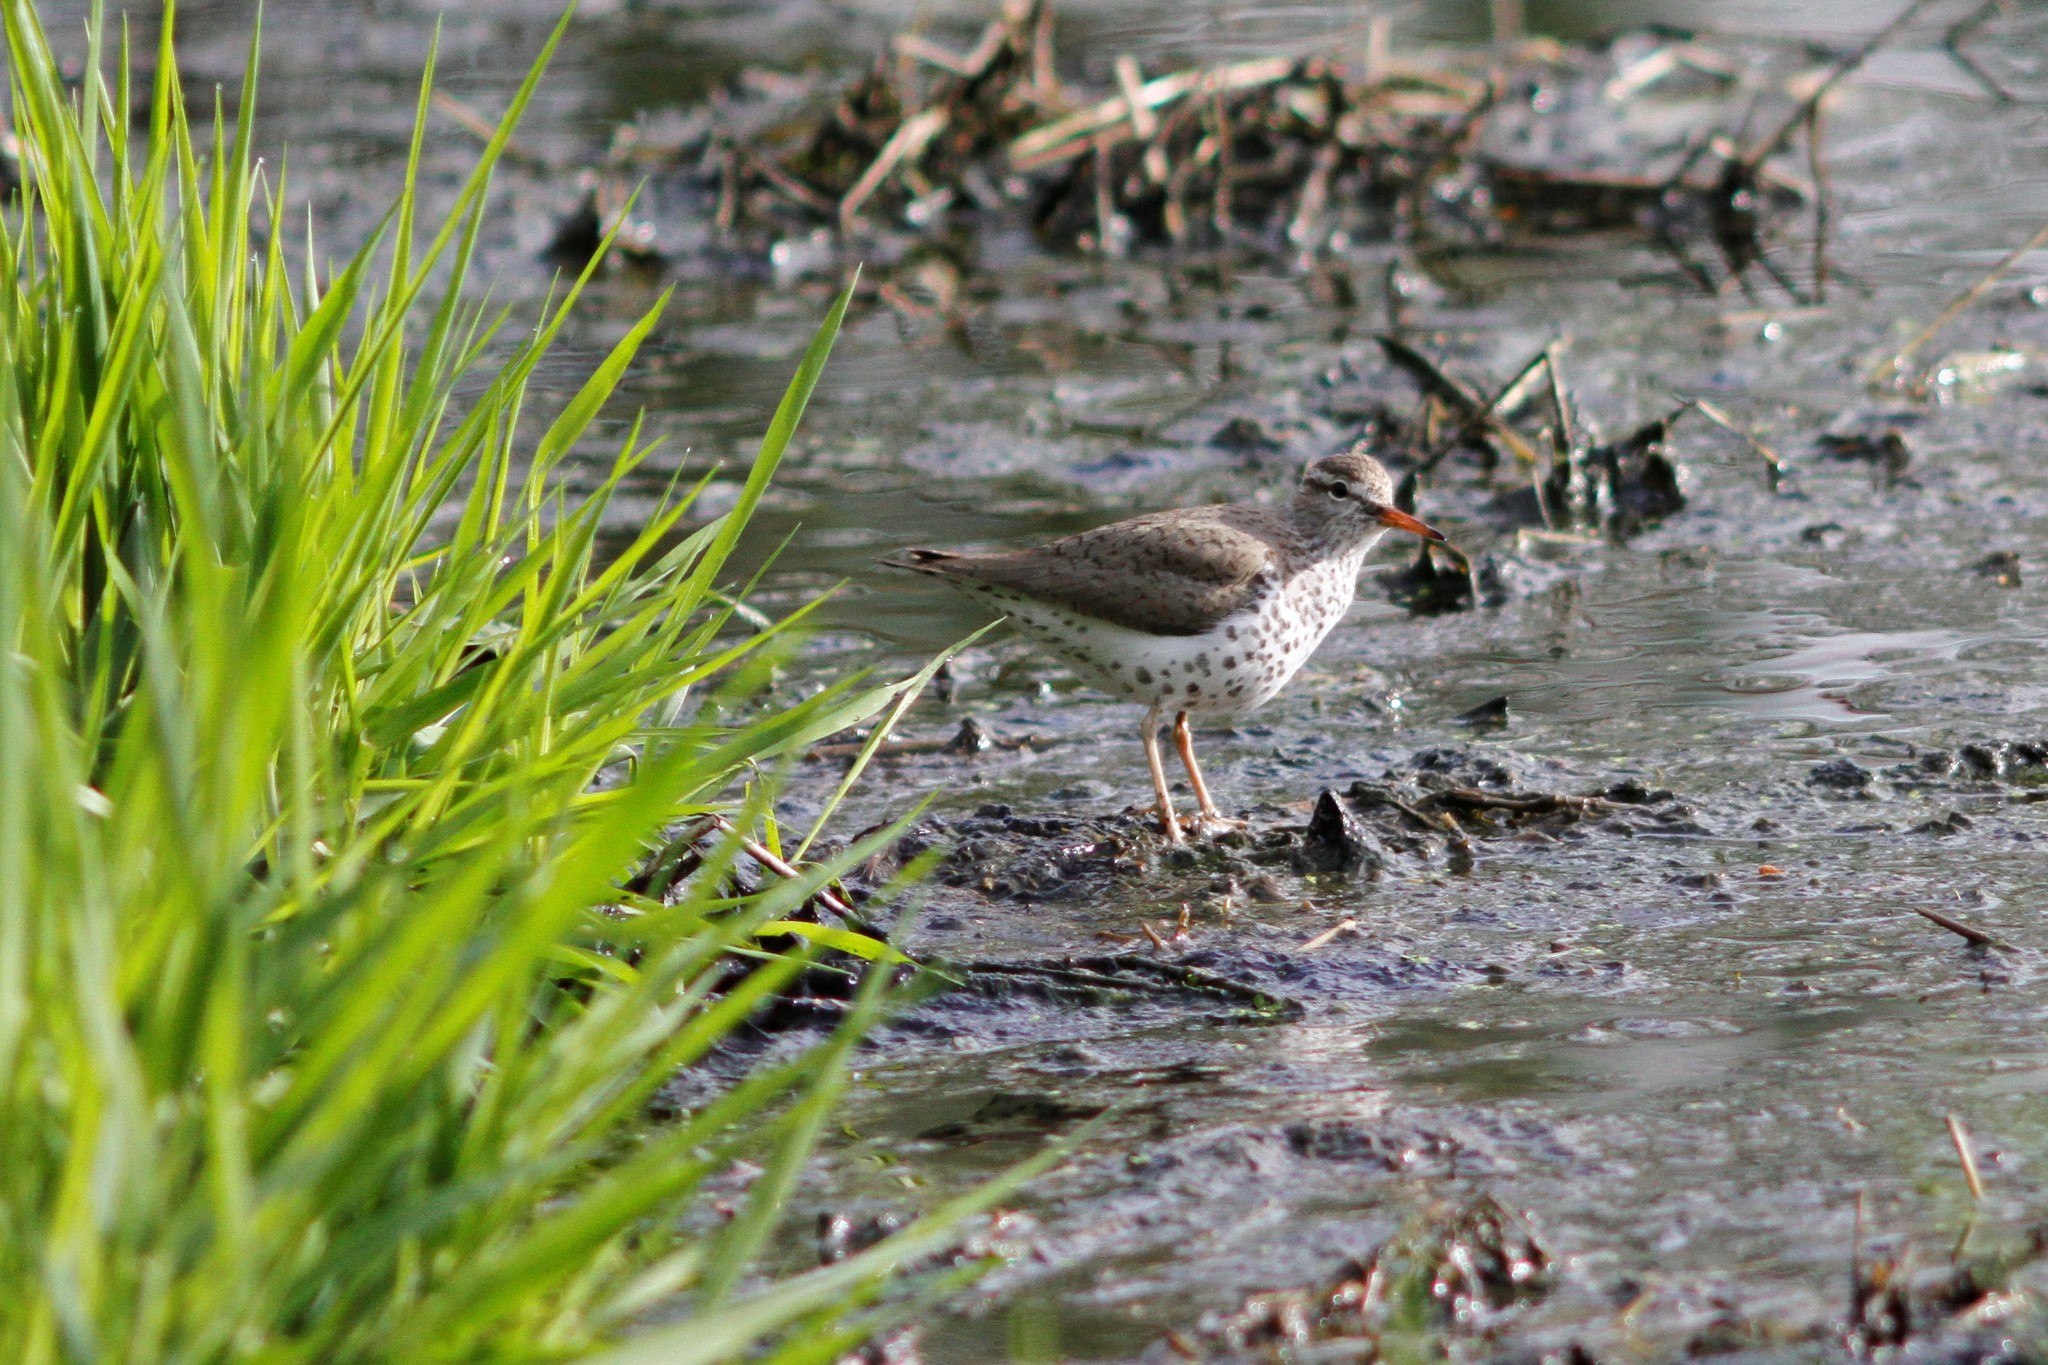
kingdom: Animalia
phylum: Chordata
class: Aves
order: Charadriiformes
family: Scolopacidae
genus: Actitis
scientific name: Actitis macularius
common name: Spotted sandpiper
